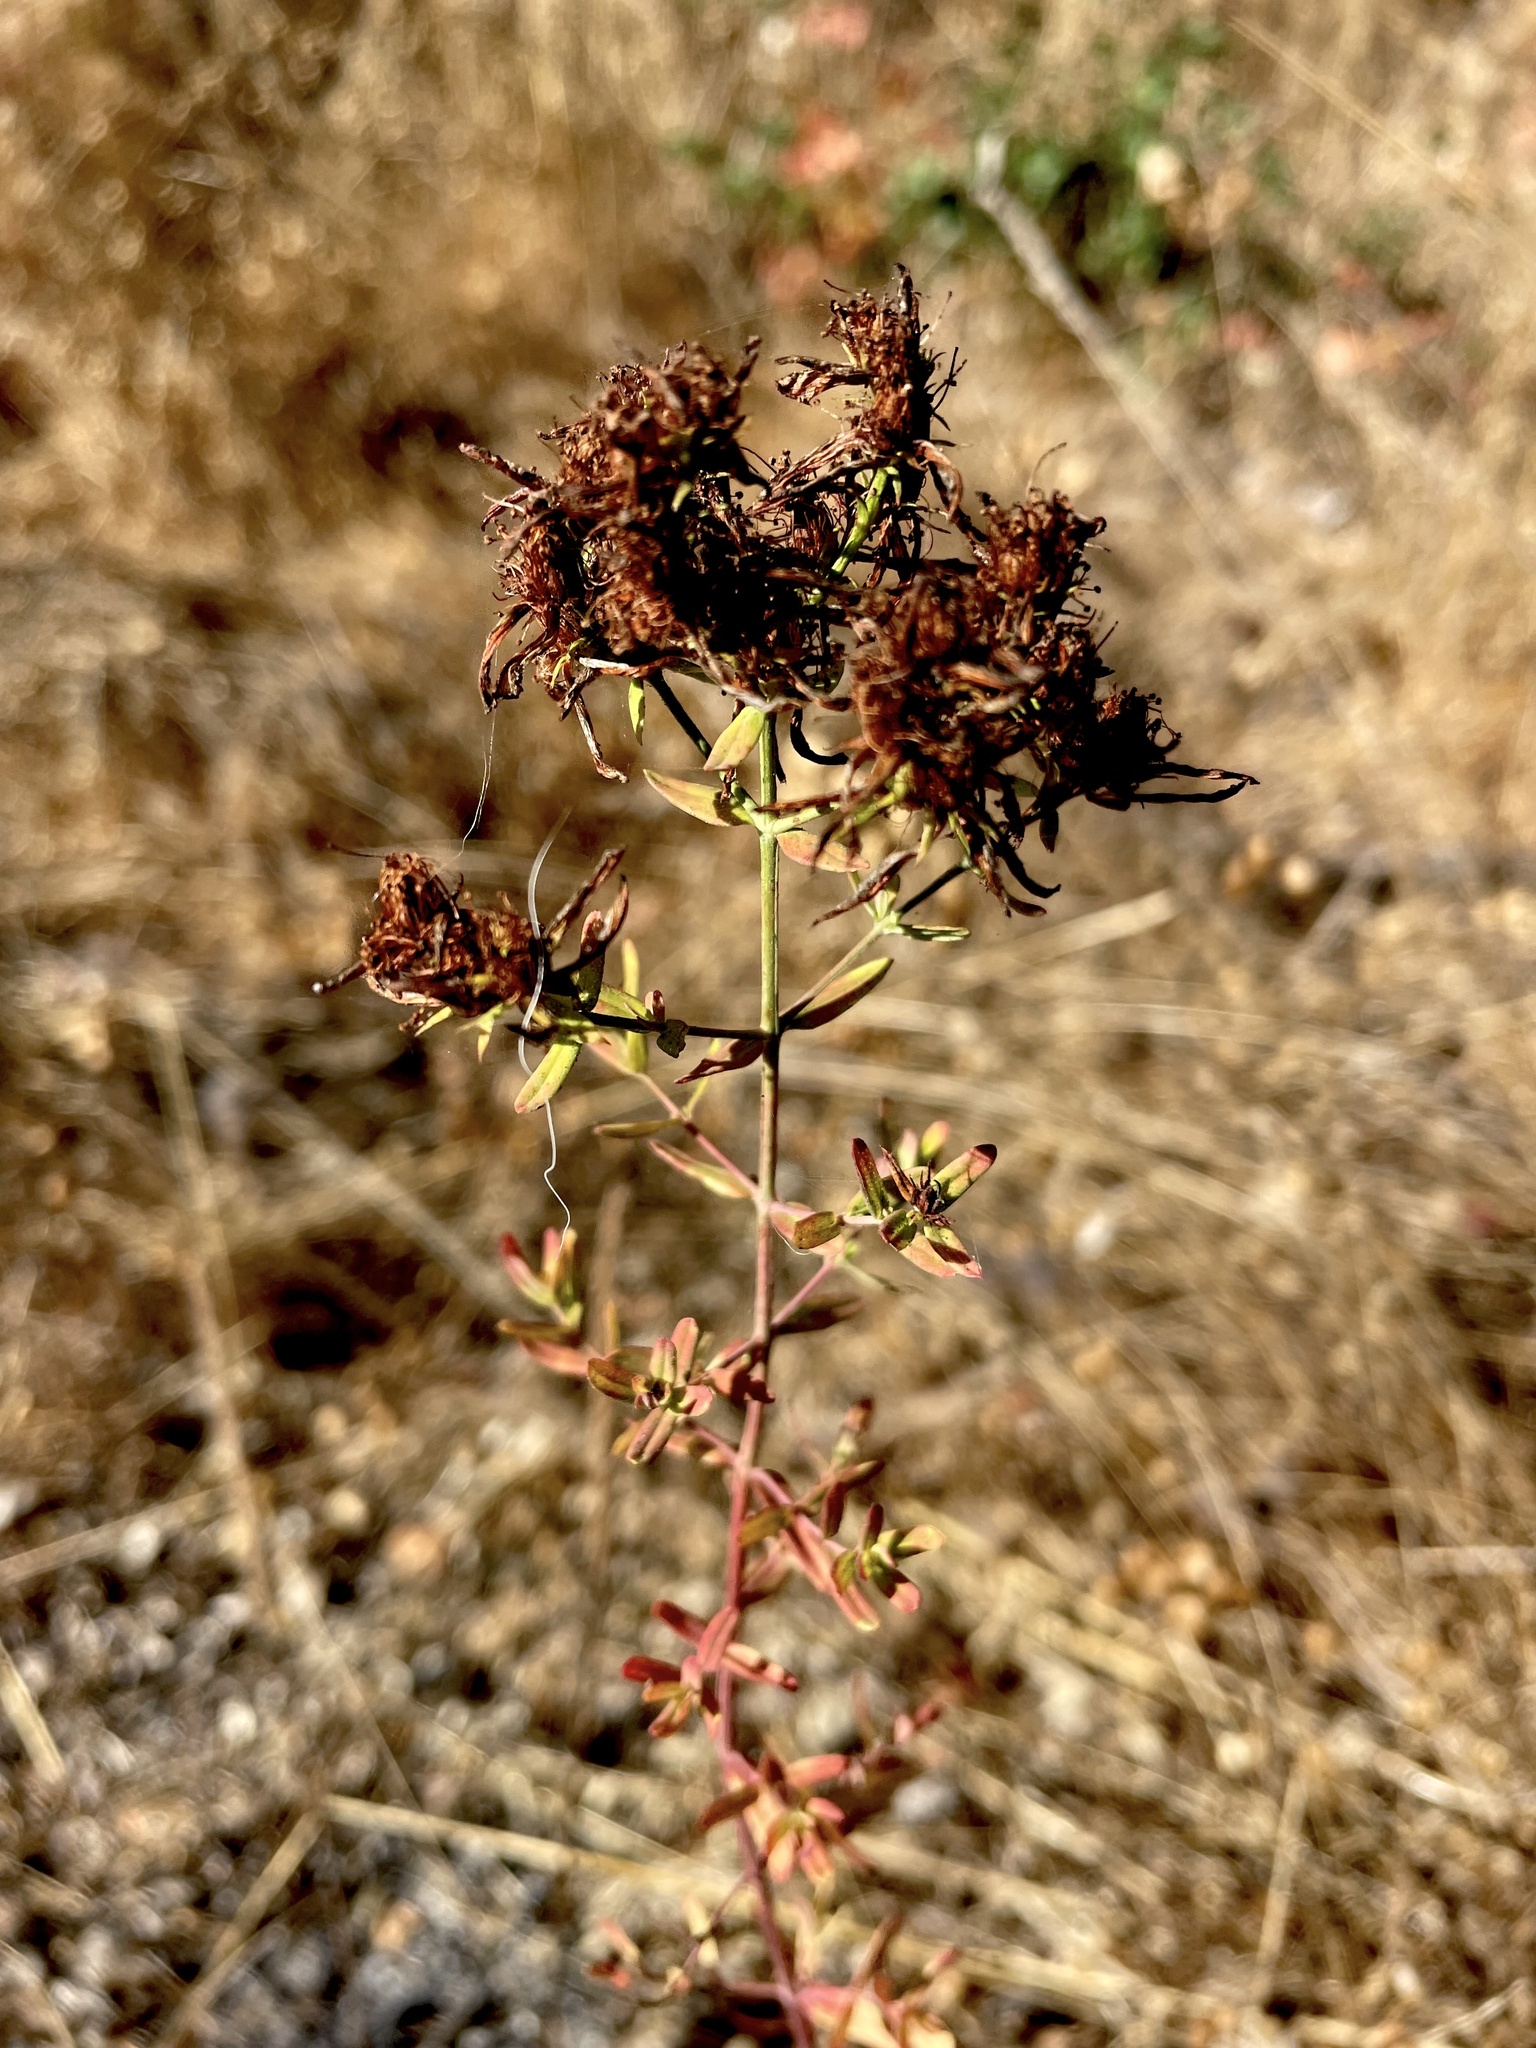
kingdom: Plantae
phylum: Tracheophyta
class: Magnoliopsida
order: Malpighiales
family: Hypericaceae
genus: Hypericum
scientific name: Hypericum perforatum
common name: Common st. johnswort
